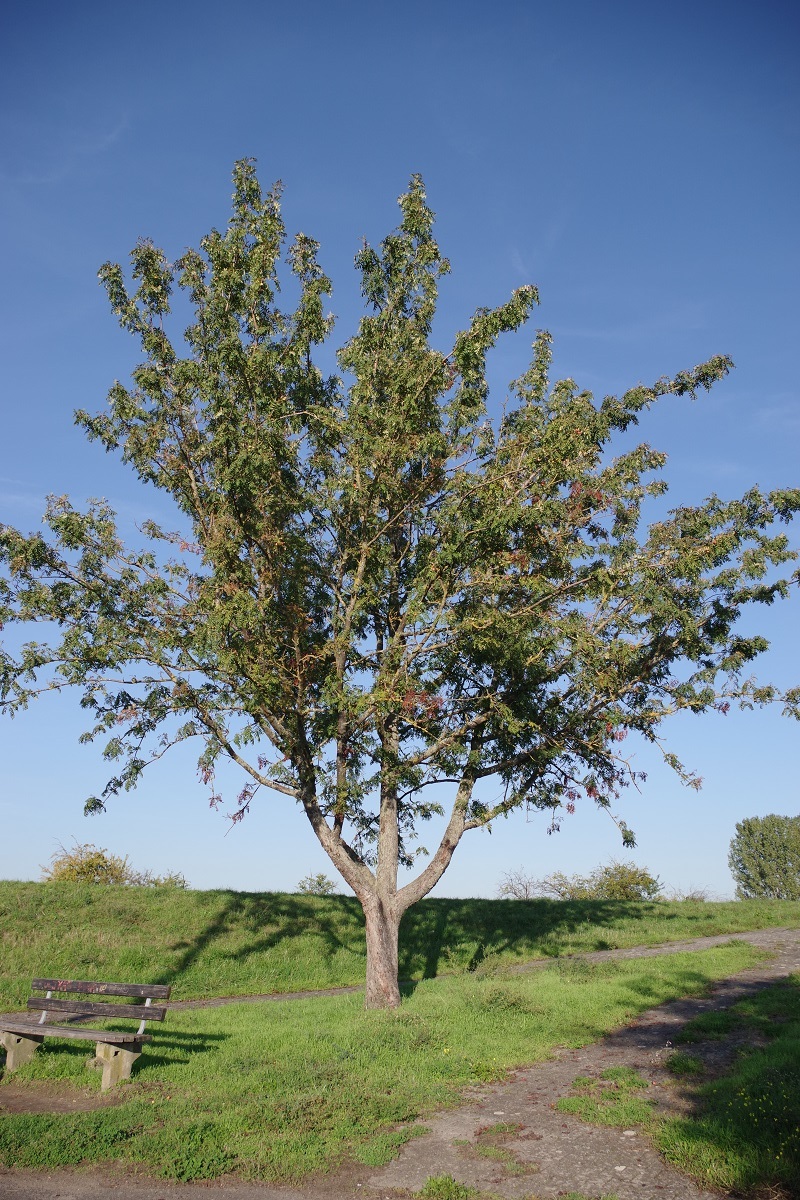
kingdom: Plantae
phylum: Tracheophyta
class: Magnoliopsida
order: Rosales
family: Rosaceae
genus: Cormus
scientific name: Cormus domestica
